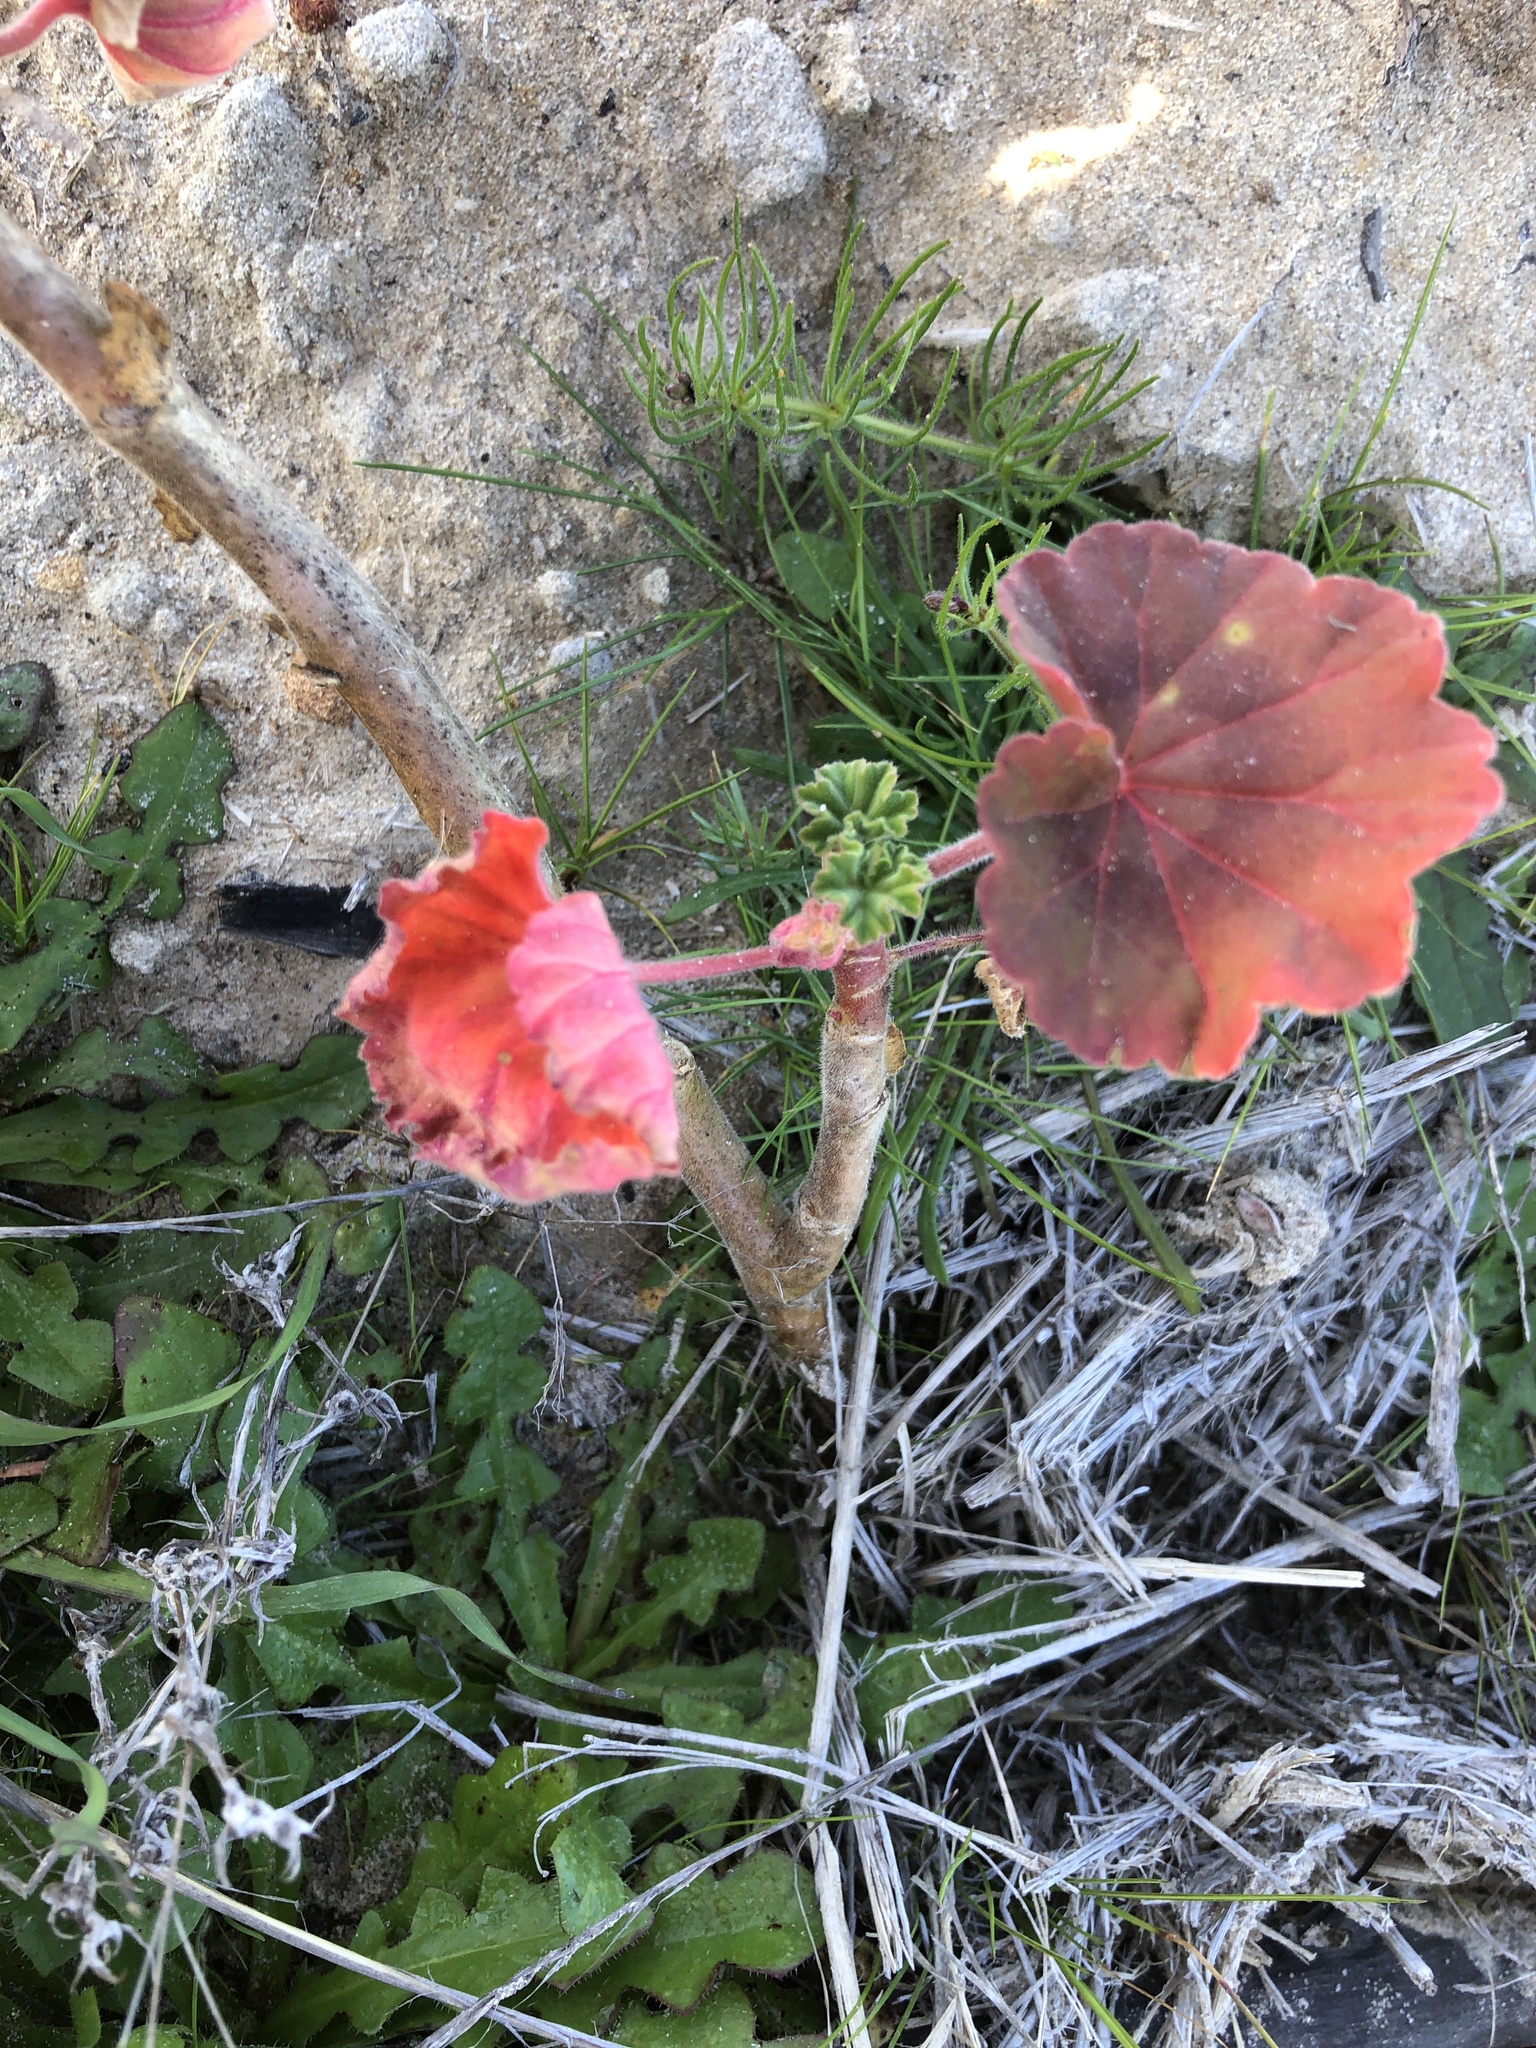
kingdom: Plantae
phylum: Tracheophyta
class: Magnoliopsida
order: Geraniales
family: Geraniaceae
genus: Pelargonium
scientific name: Pelargonium hybridum
